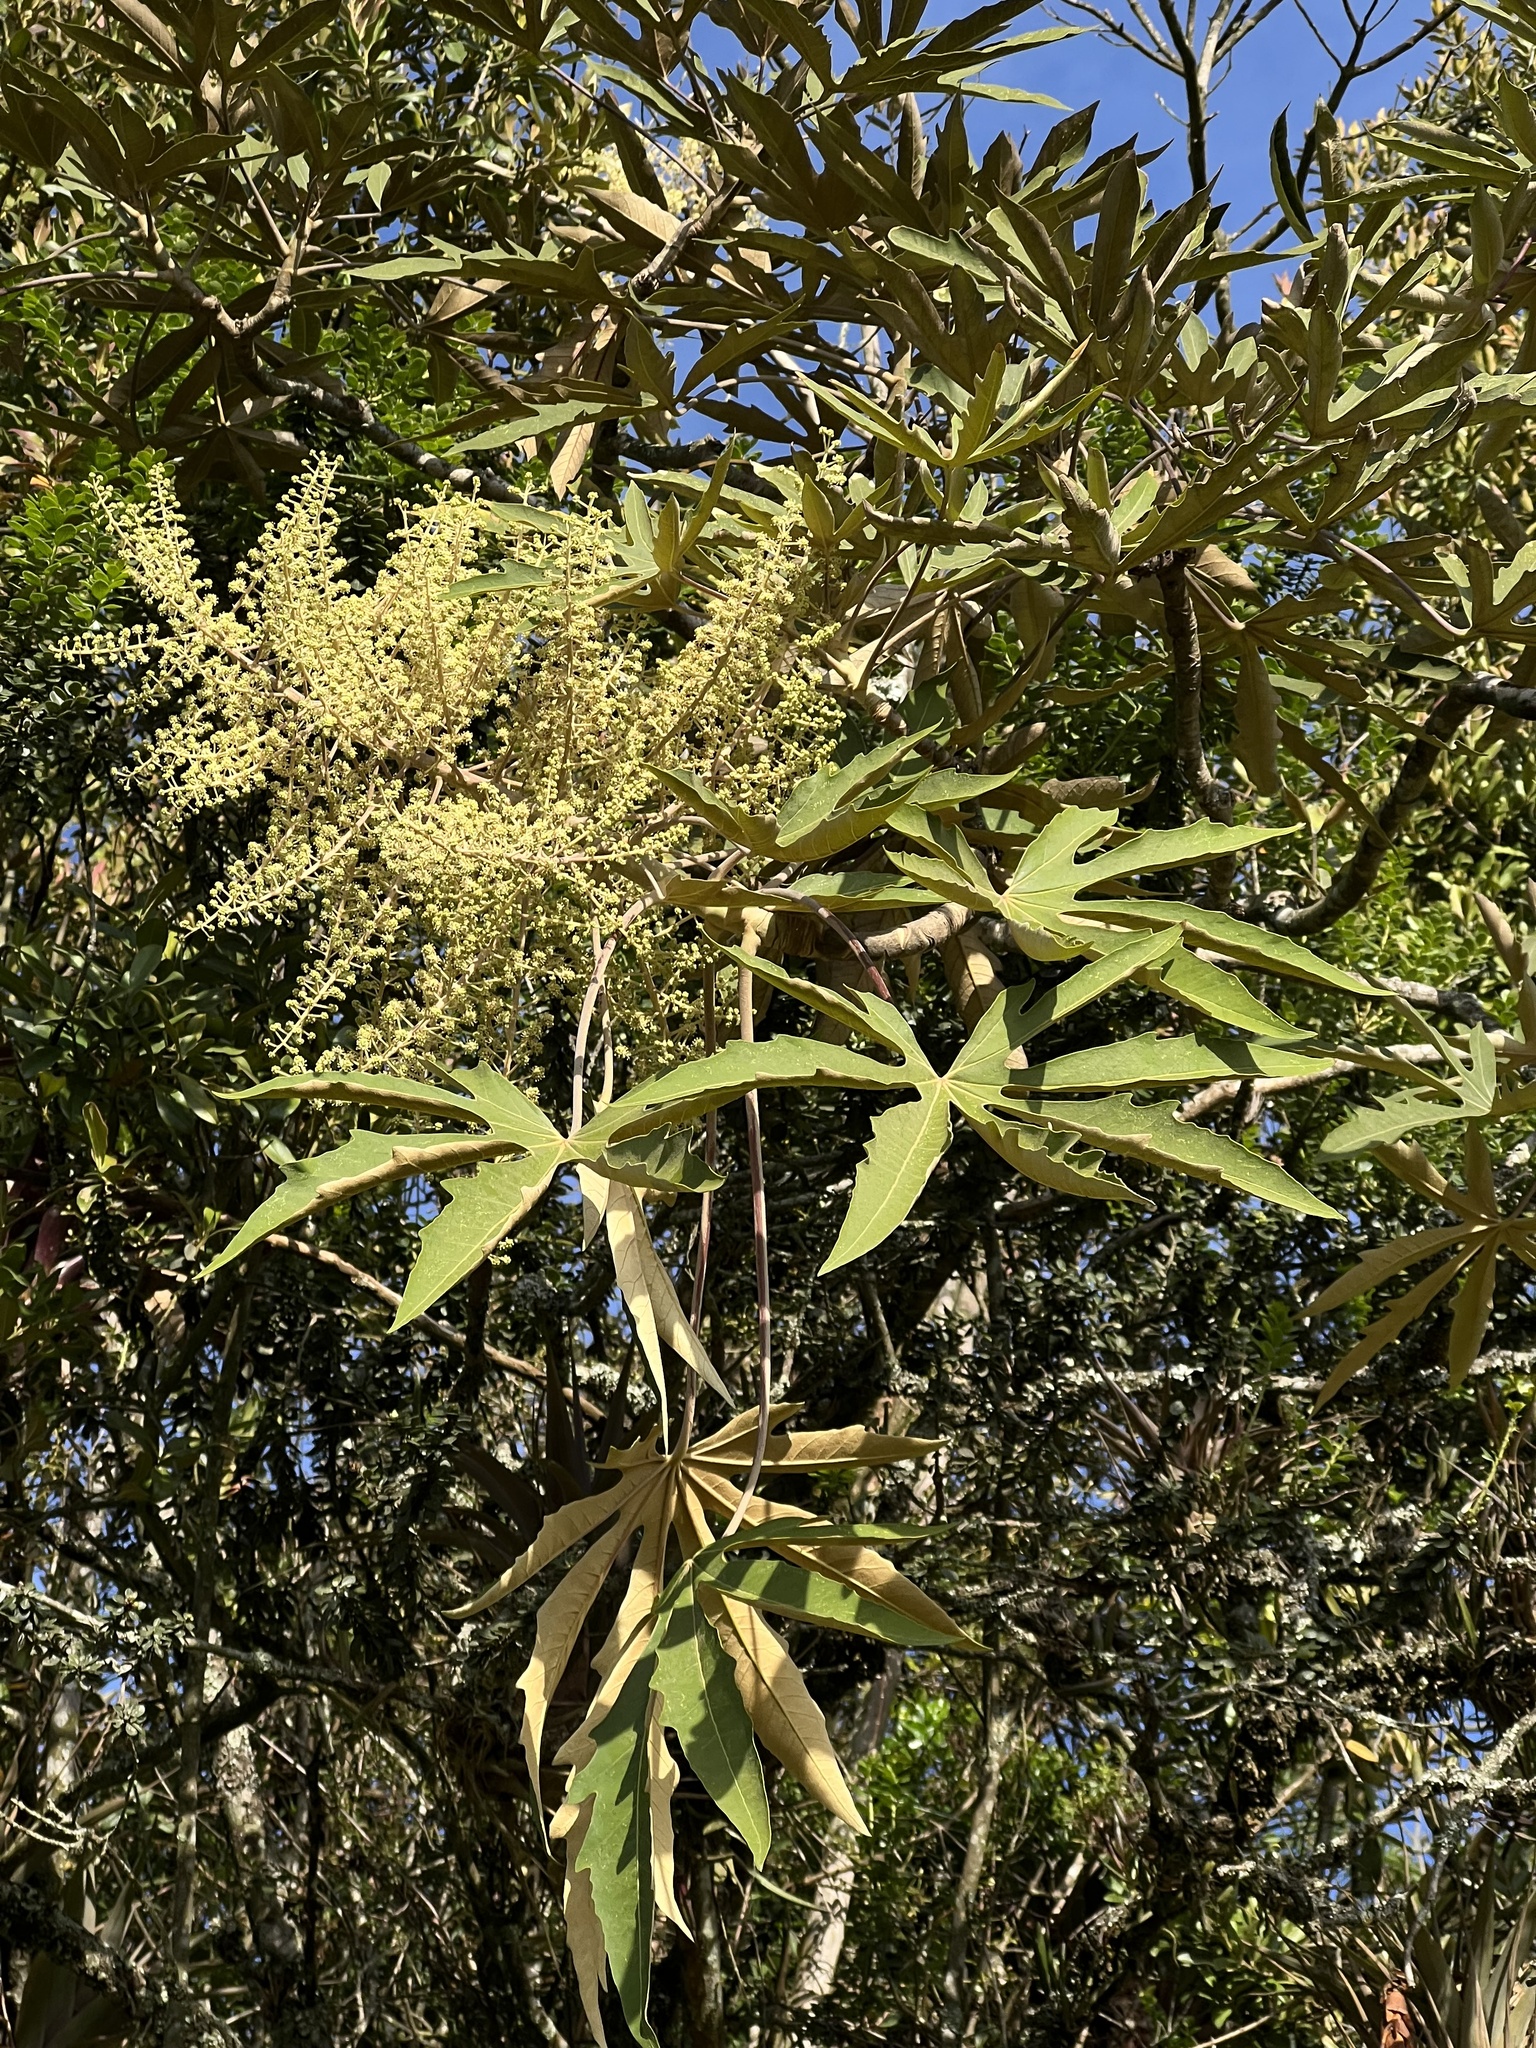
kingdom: Plantae
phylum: Tracheophyta
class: Magnoliopsida
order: Apiales
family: Araliaceae
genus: Oreopanax
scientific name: Oreopanax incisus
